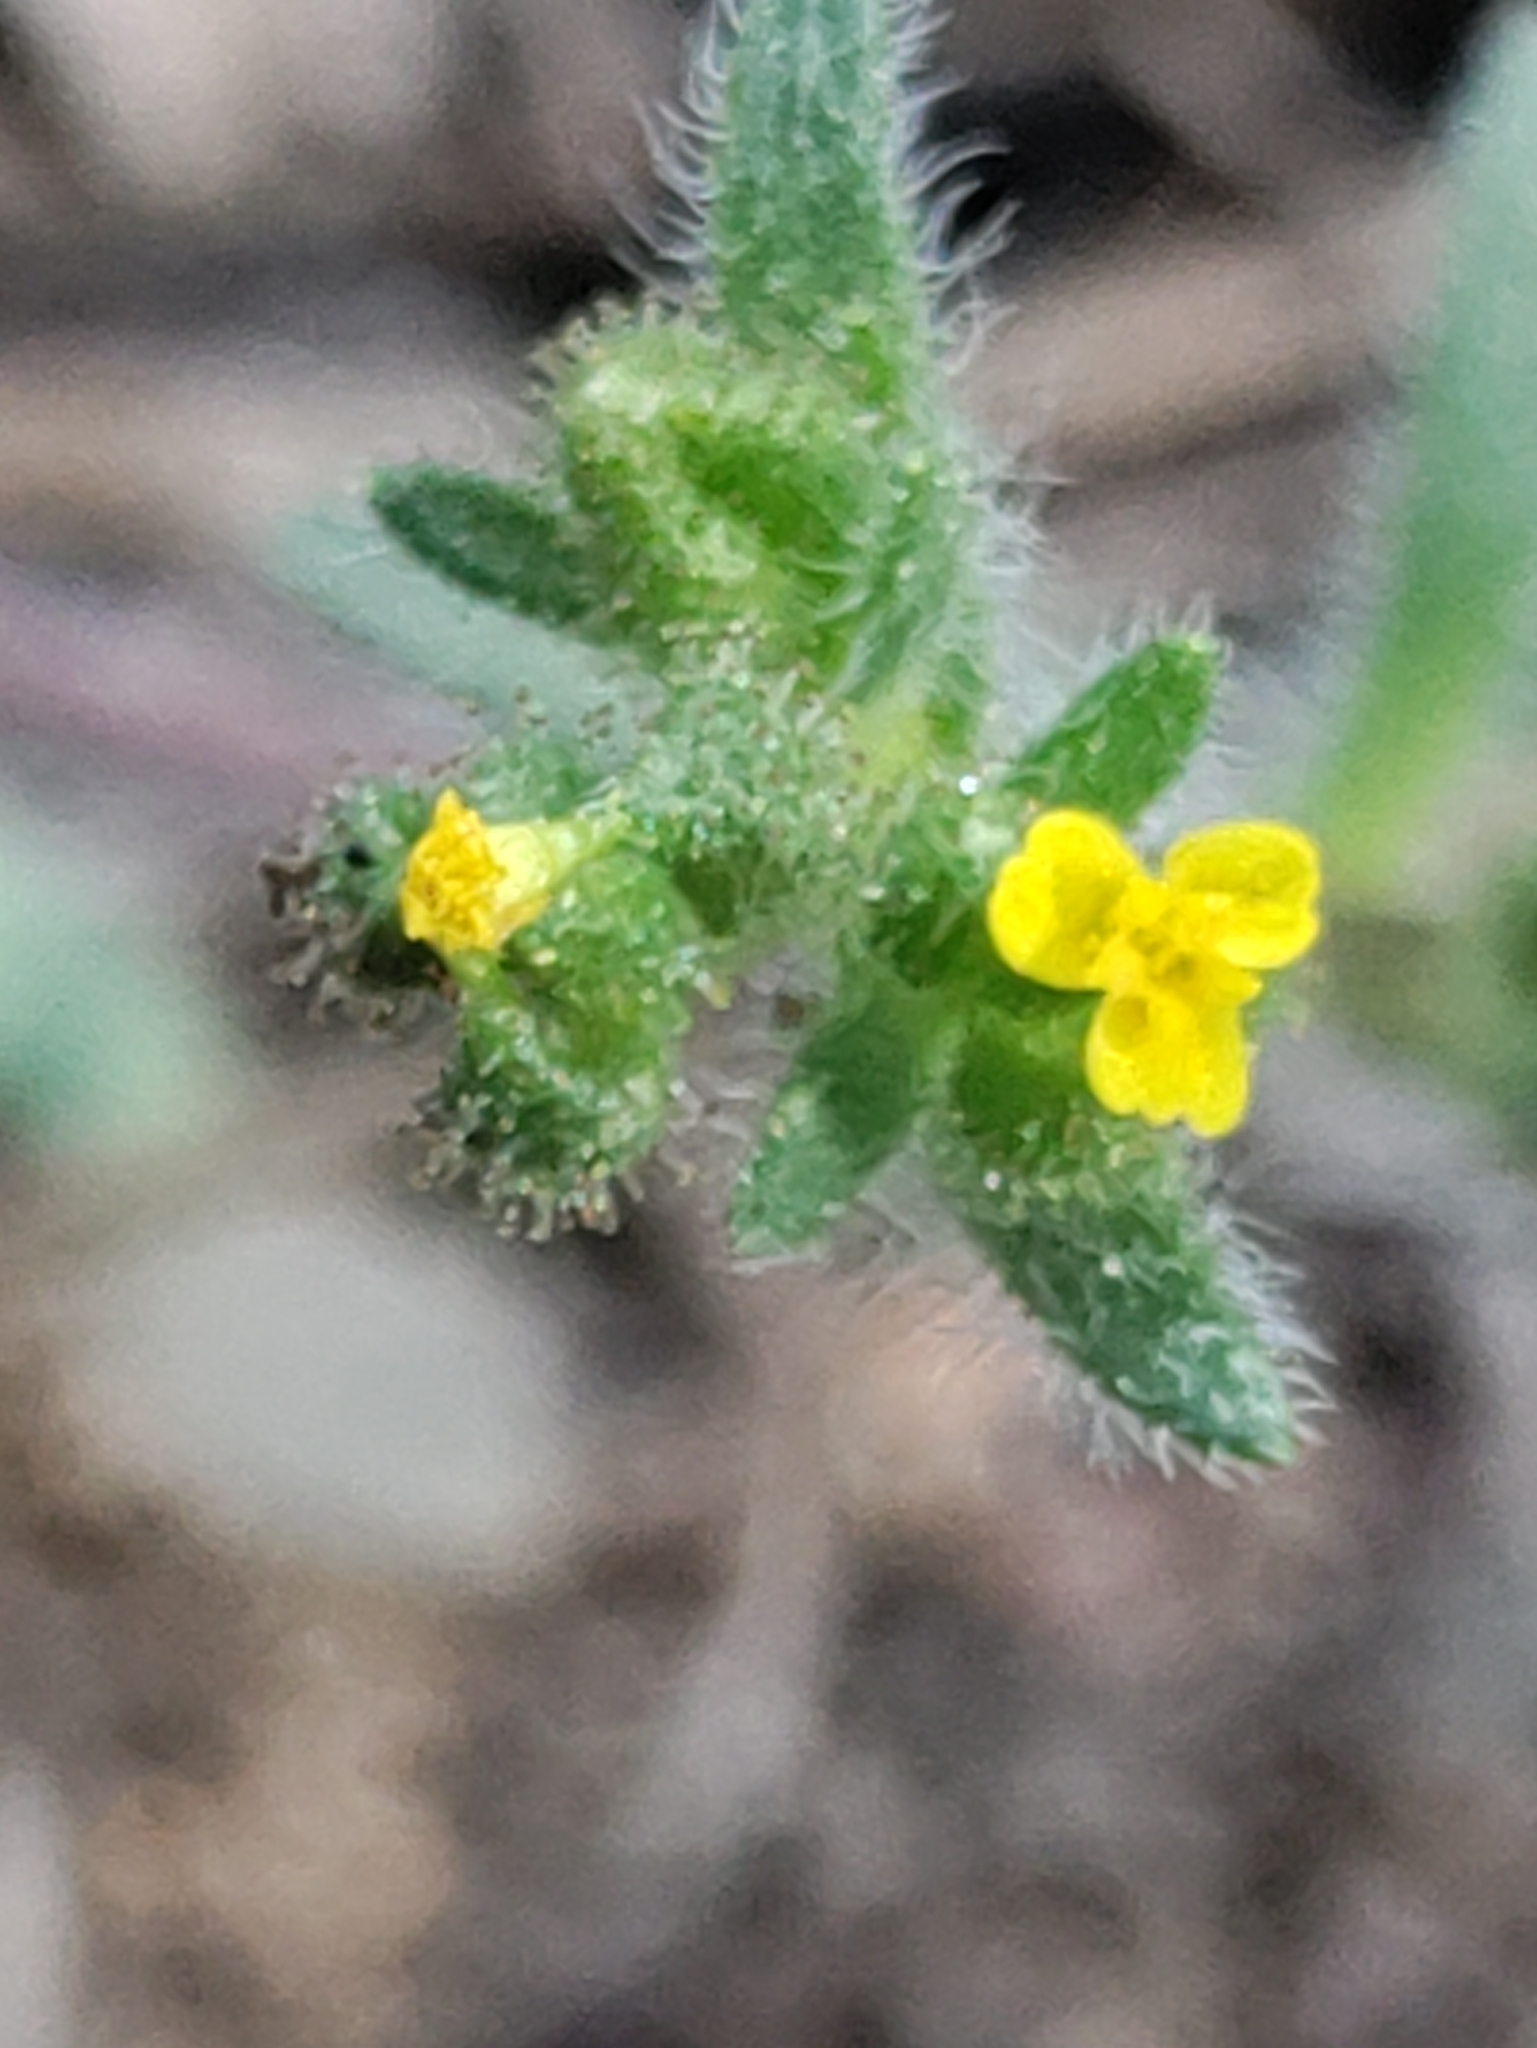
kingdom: Plantae
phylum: Tracheophyta
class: Magnoliopsida
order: Asterales
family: Asteraceae
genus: Hemizonella
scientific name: Hemizonella minima
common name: Opposite-leaved tarweed
